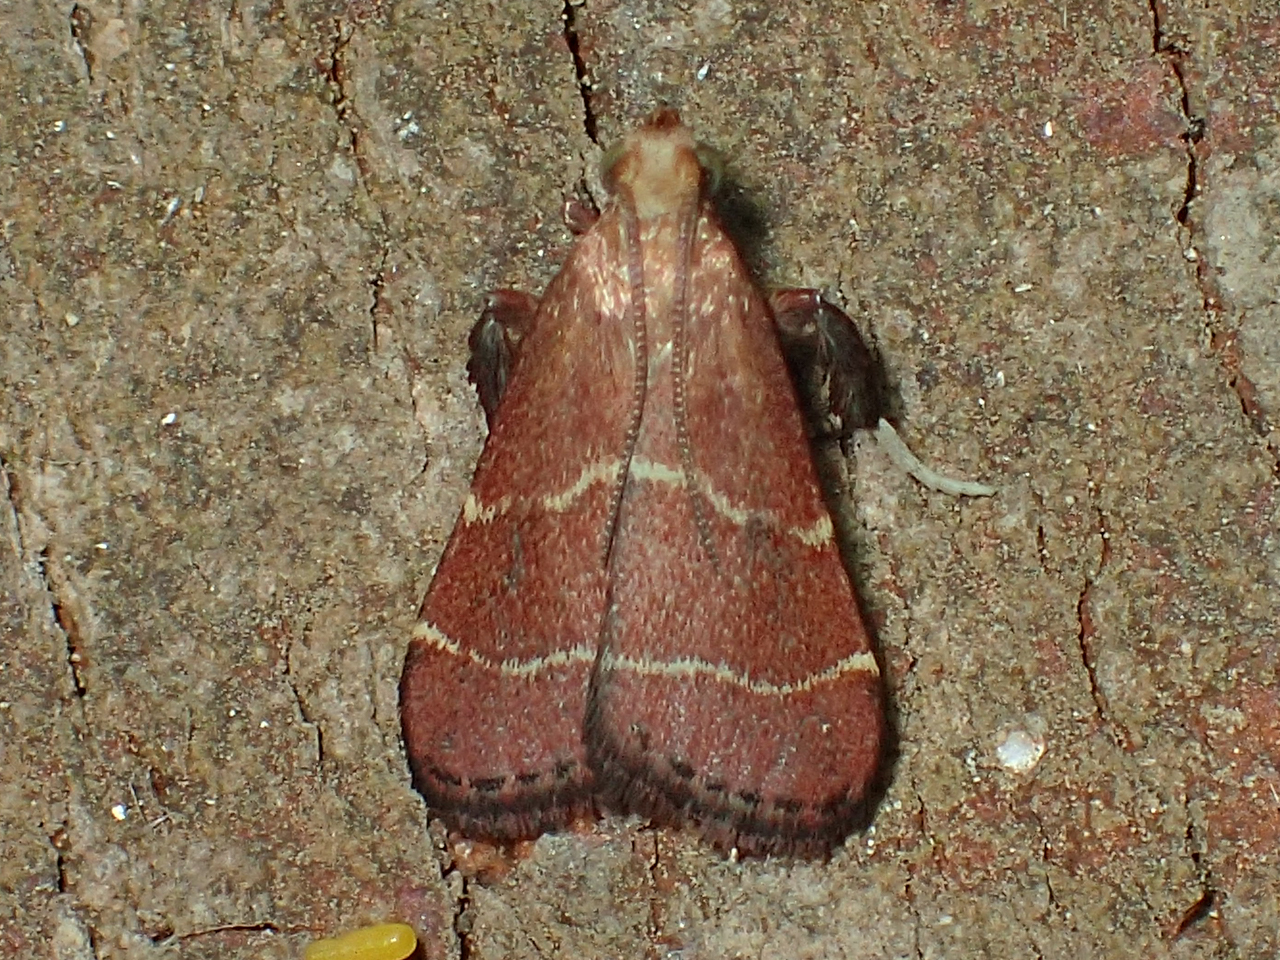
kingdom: Animalia
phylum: Arthropoda
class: Insecta
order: Lepidoptera
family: Pyralidae
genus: Arta
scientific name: Arta statalis
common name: Posturing arta moth
